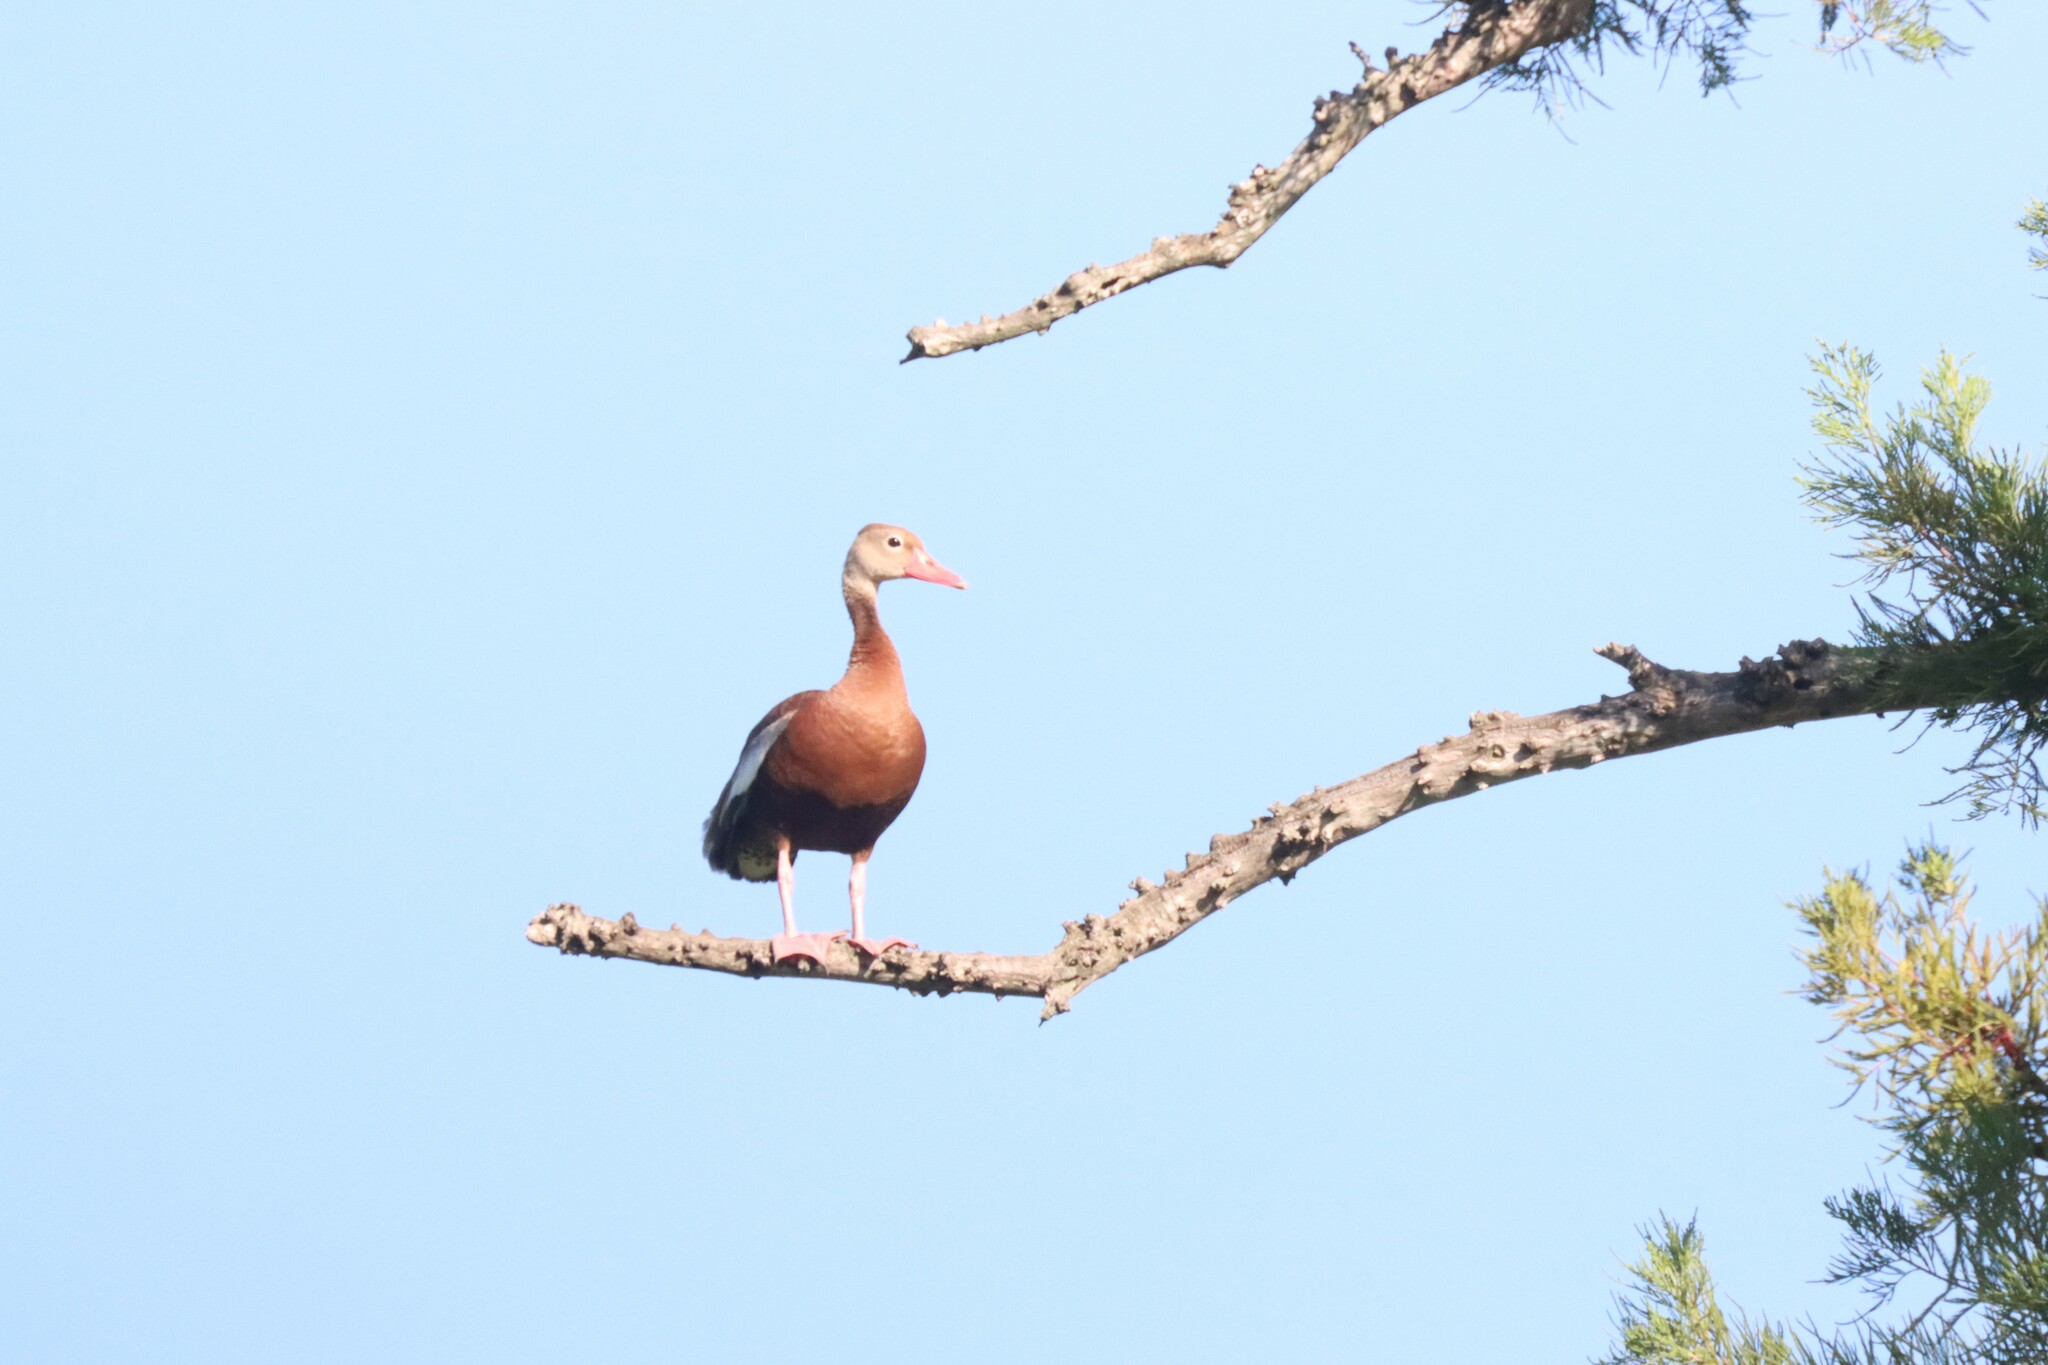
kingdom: Animalia
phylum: Chordata
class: Aves
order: Anseriformes
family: Anatidae
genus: Dendrocygna
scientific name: Dendrocygna autumnalis
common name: Black-bellied whistling duck
